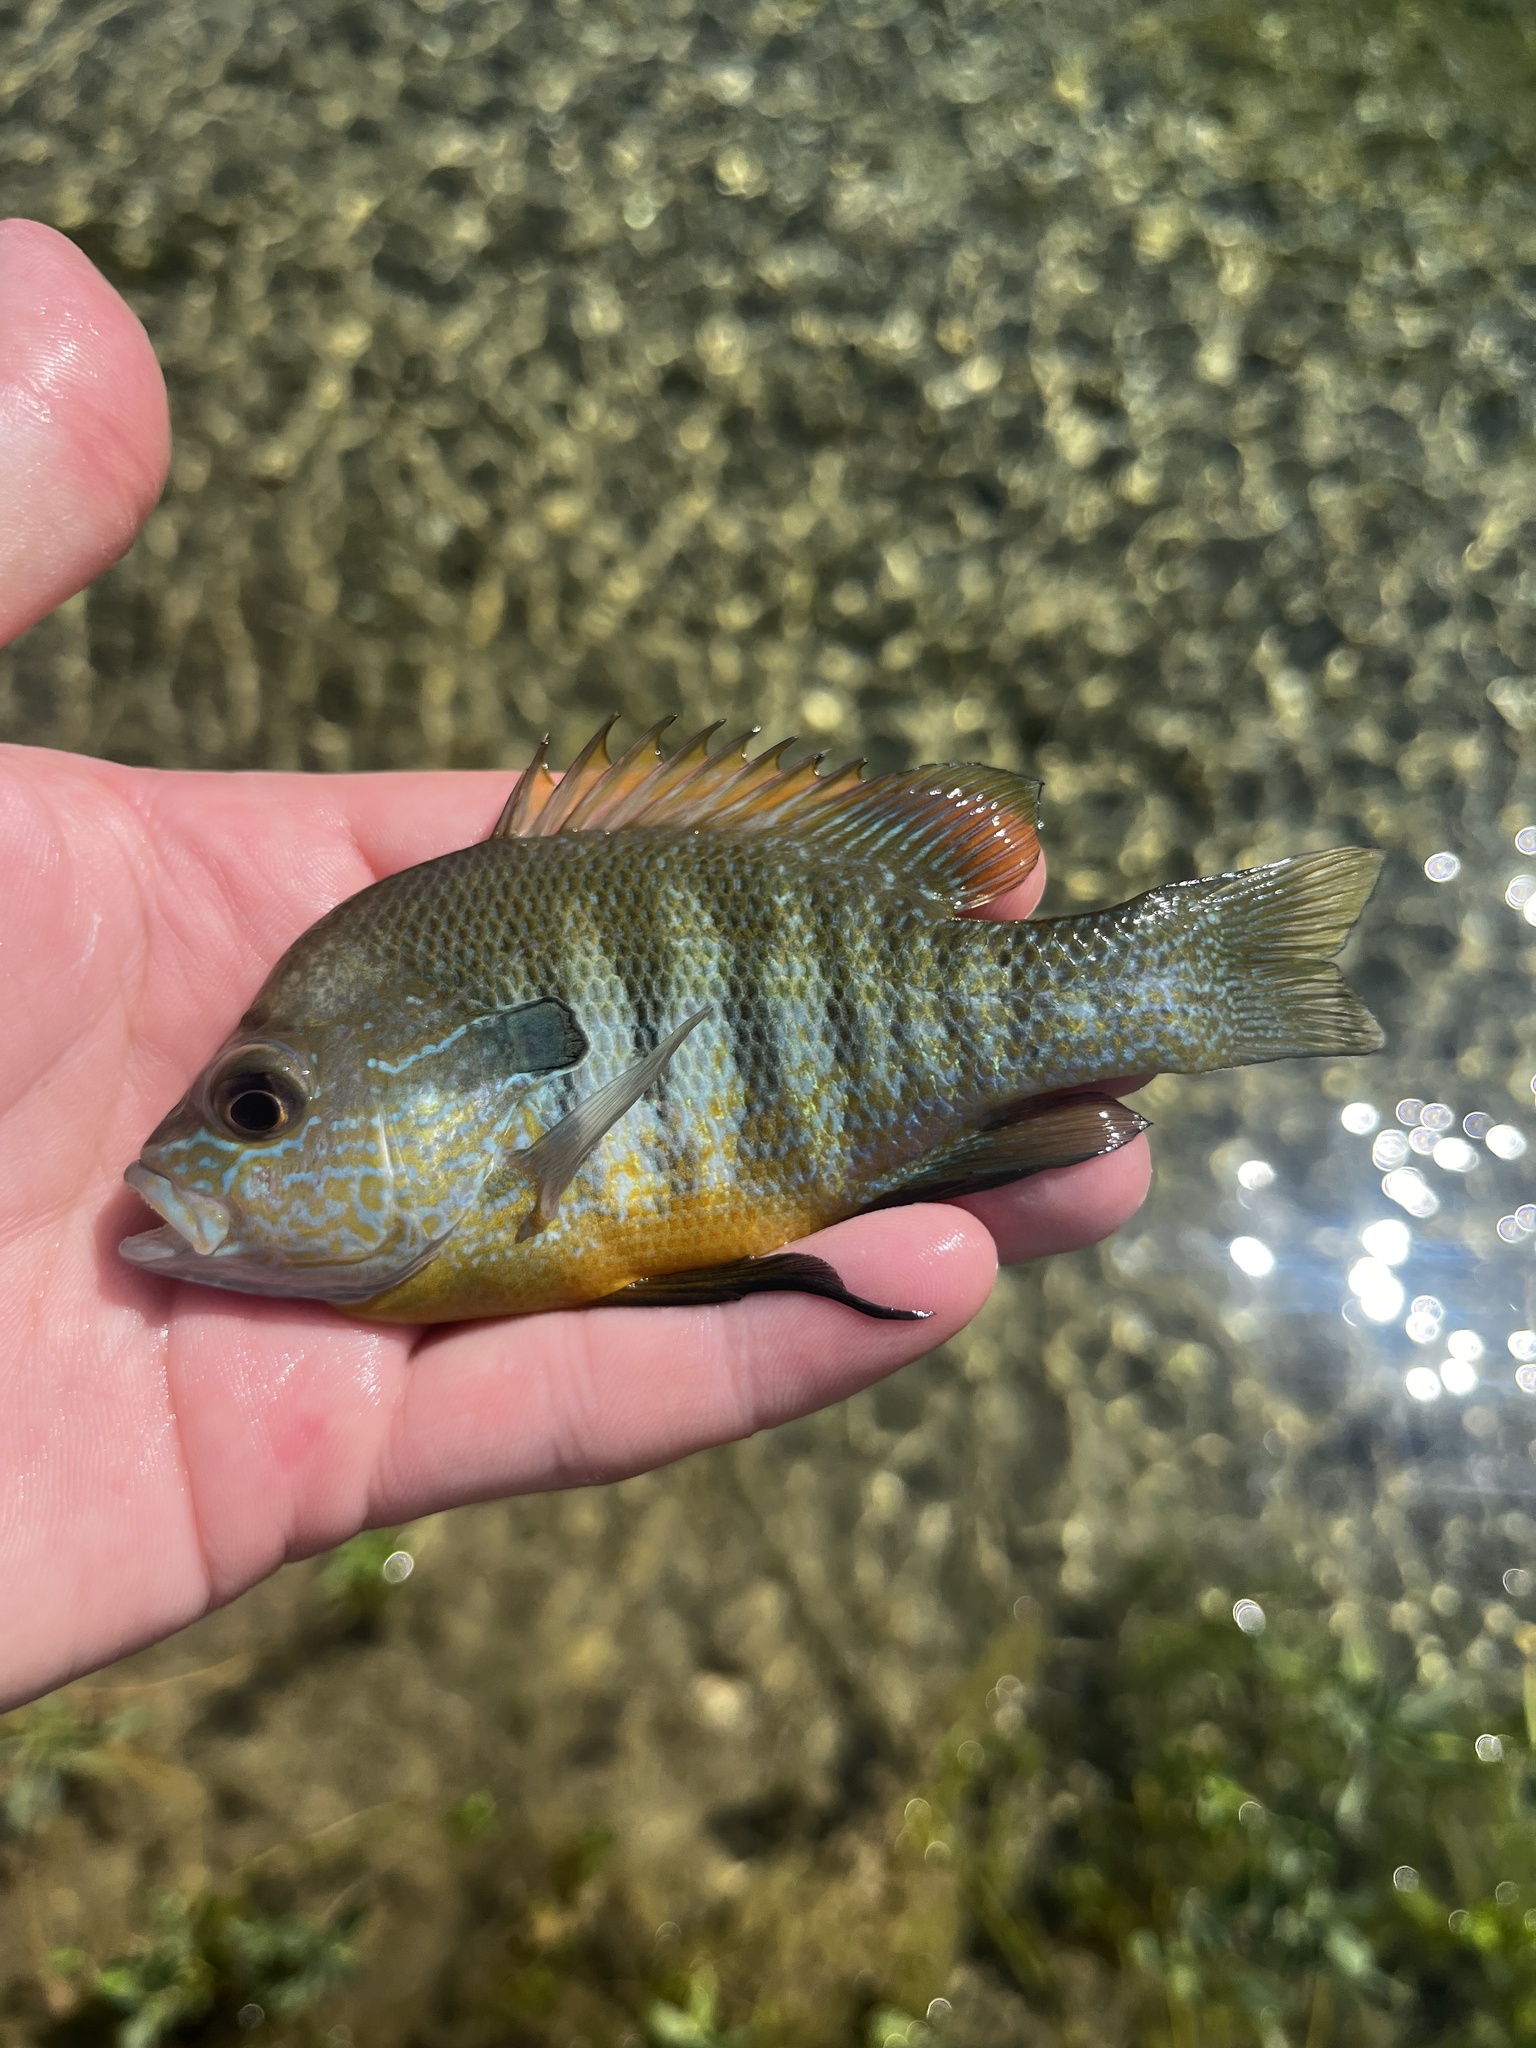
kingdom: Animalia
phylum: Chordata
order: Perciformes
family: Centrarchidae
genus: Lepomis
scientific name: Lepomis aquilensis
